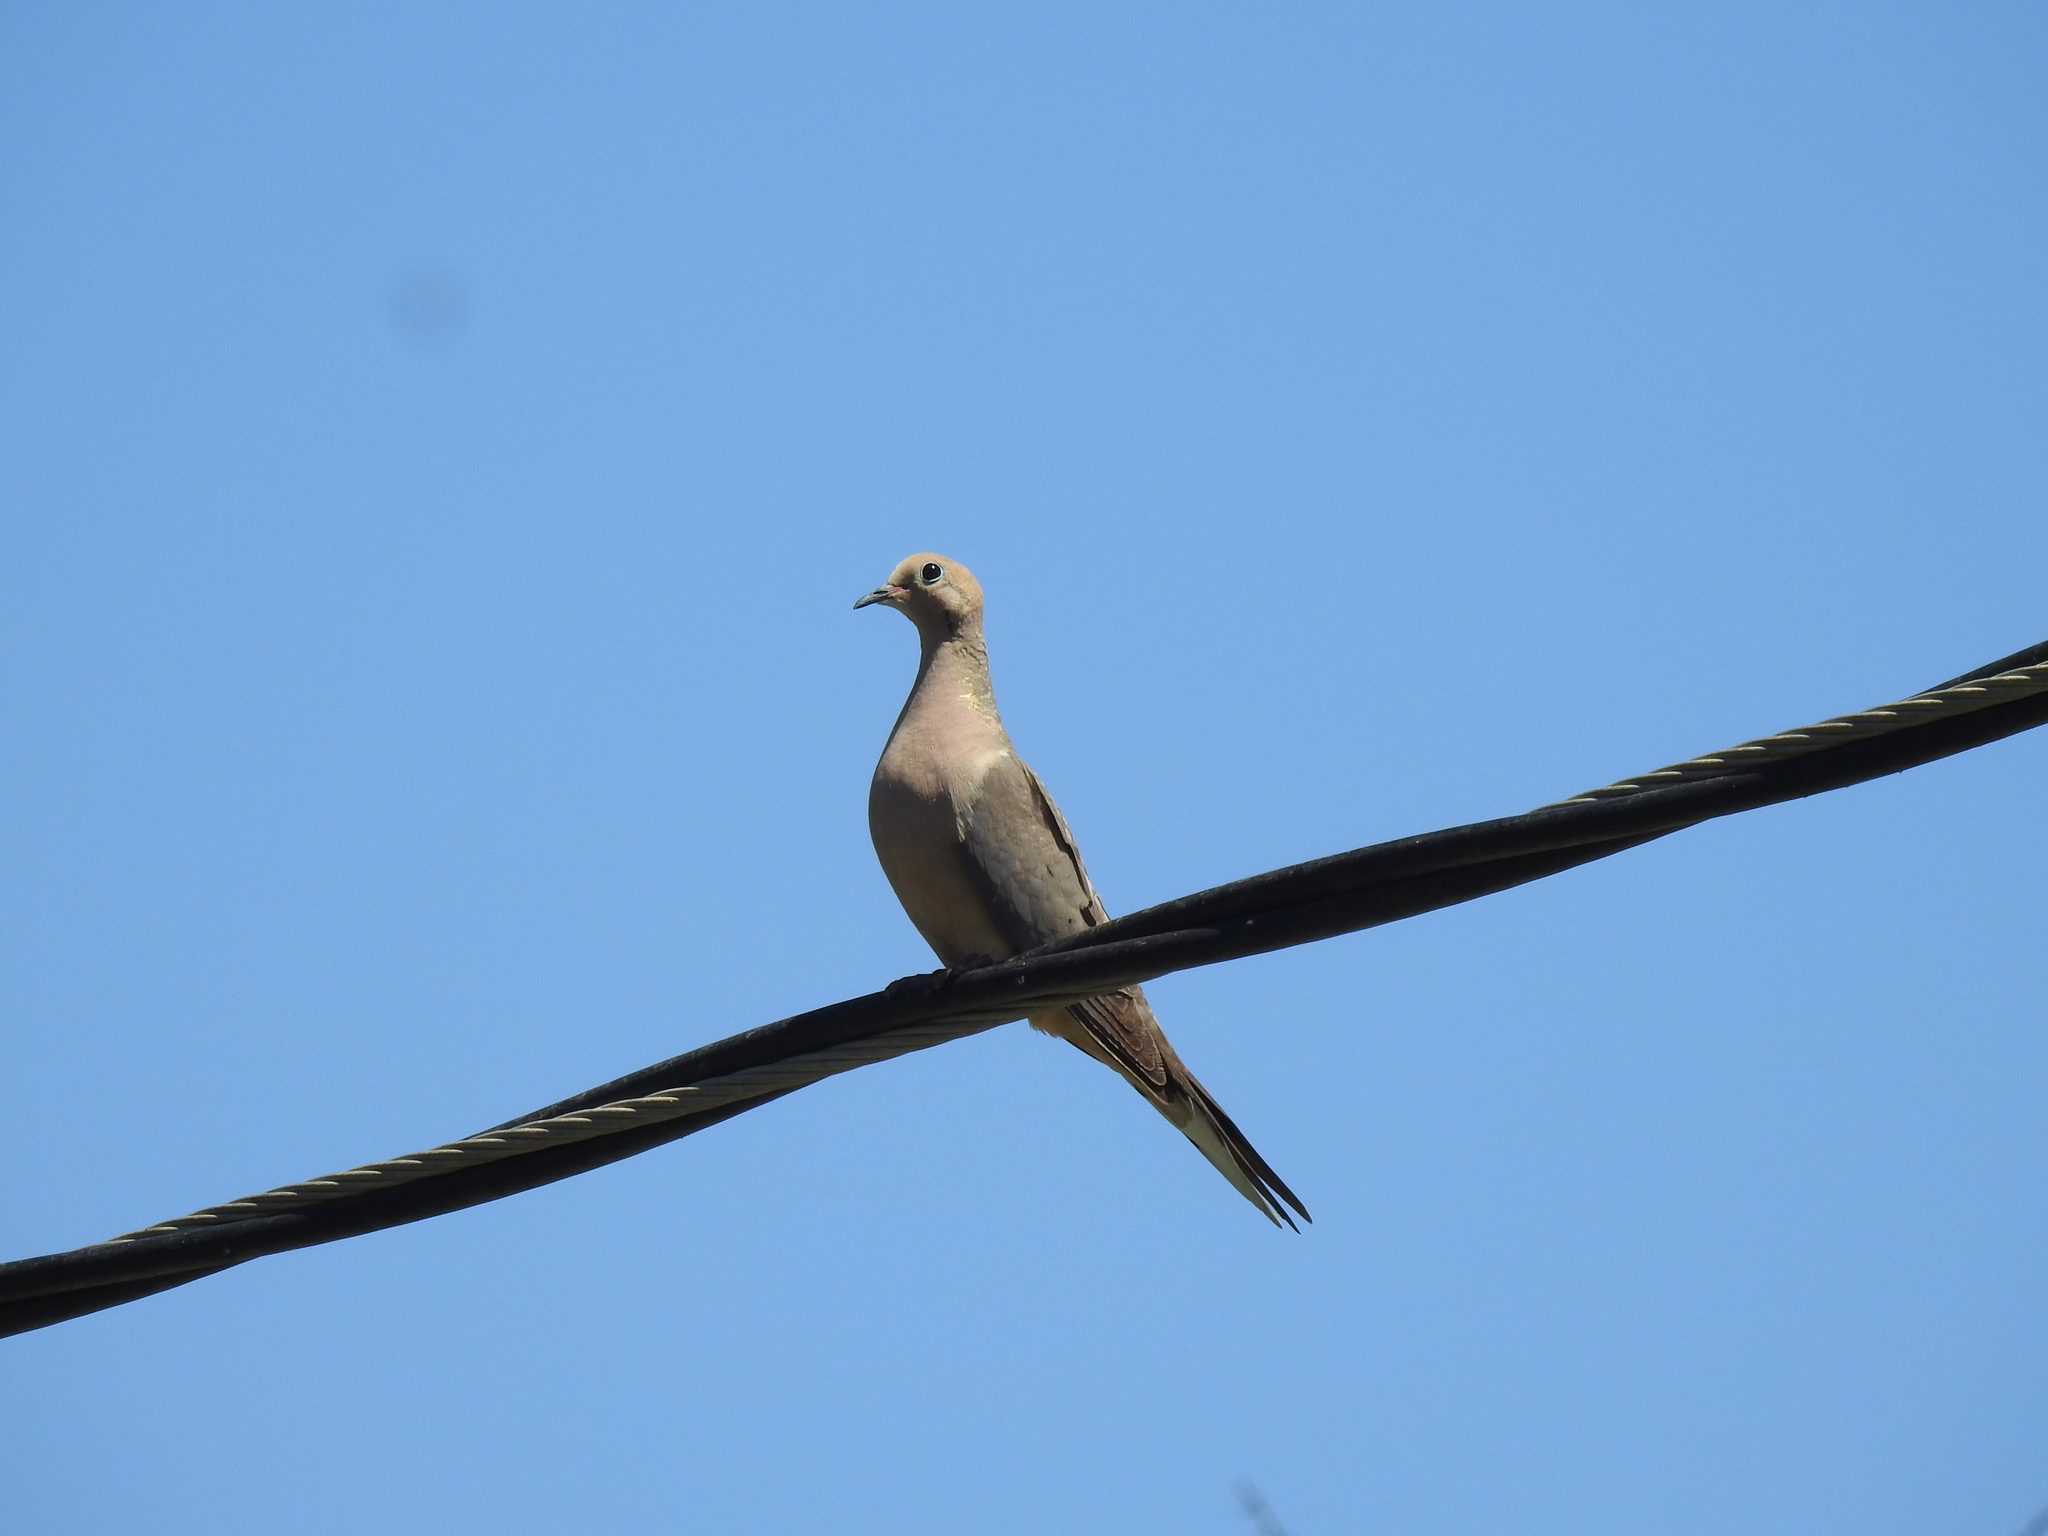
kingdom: Animalia
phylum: Chordata
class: Aves
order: Columbiformes
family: Columbidae
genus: Zenaida
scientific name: Zenaida macroura
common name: Mourning dove
